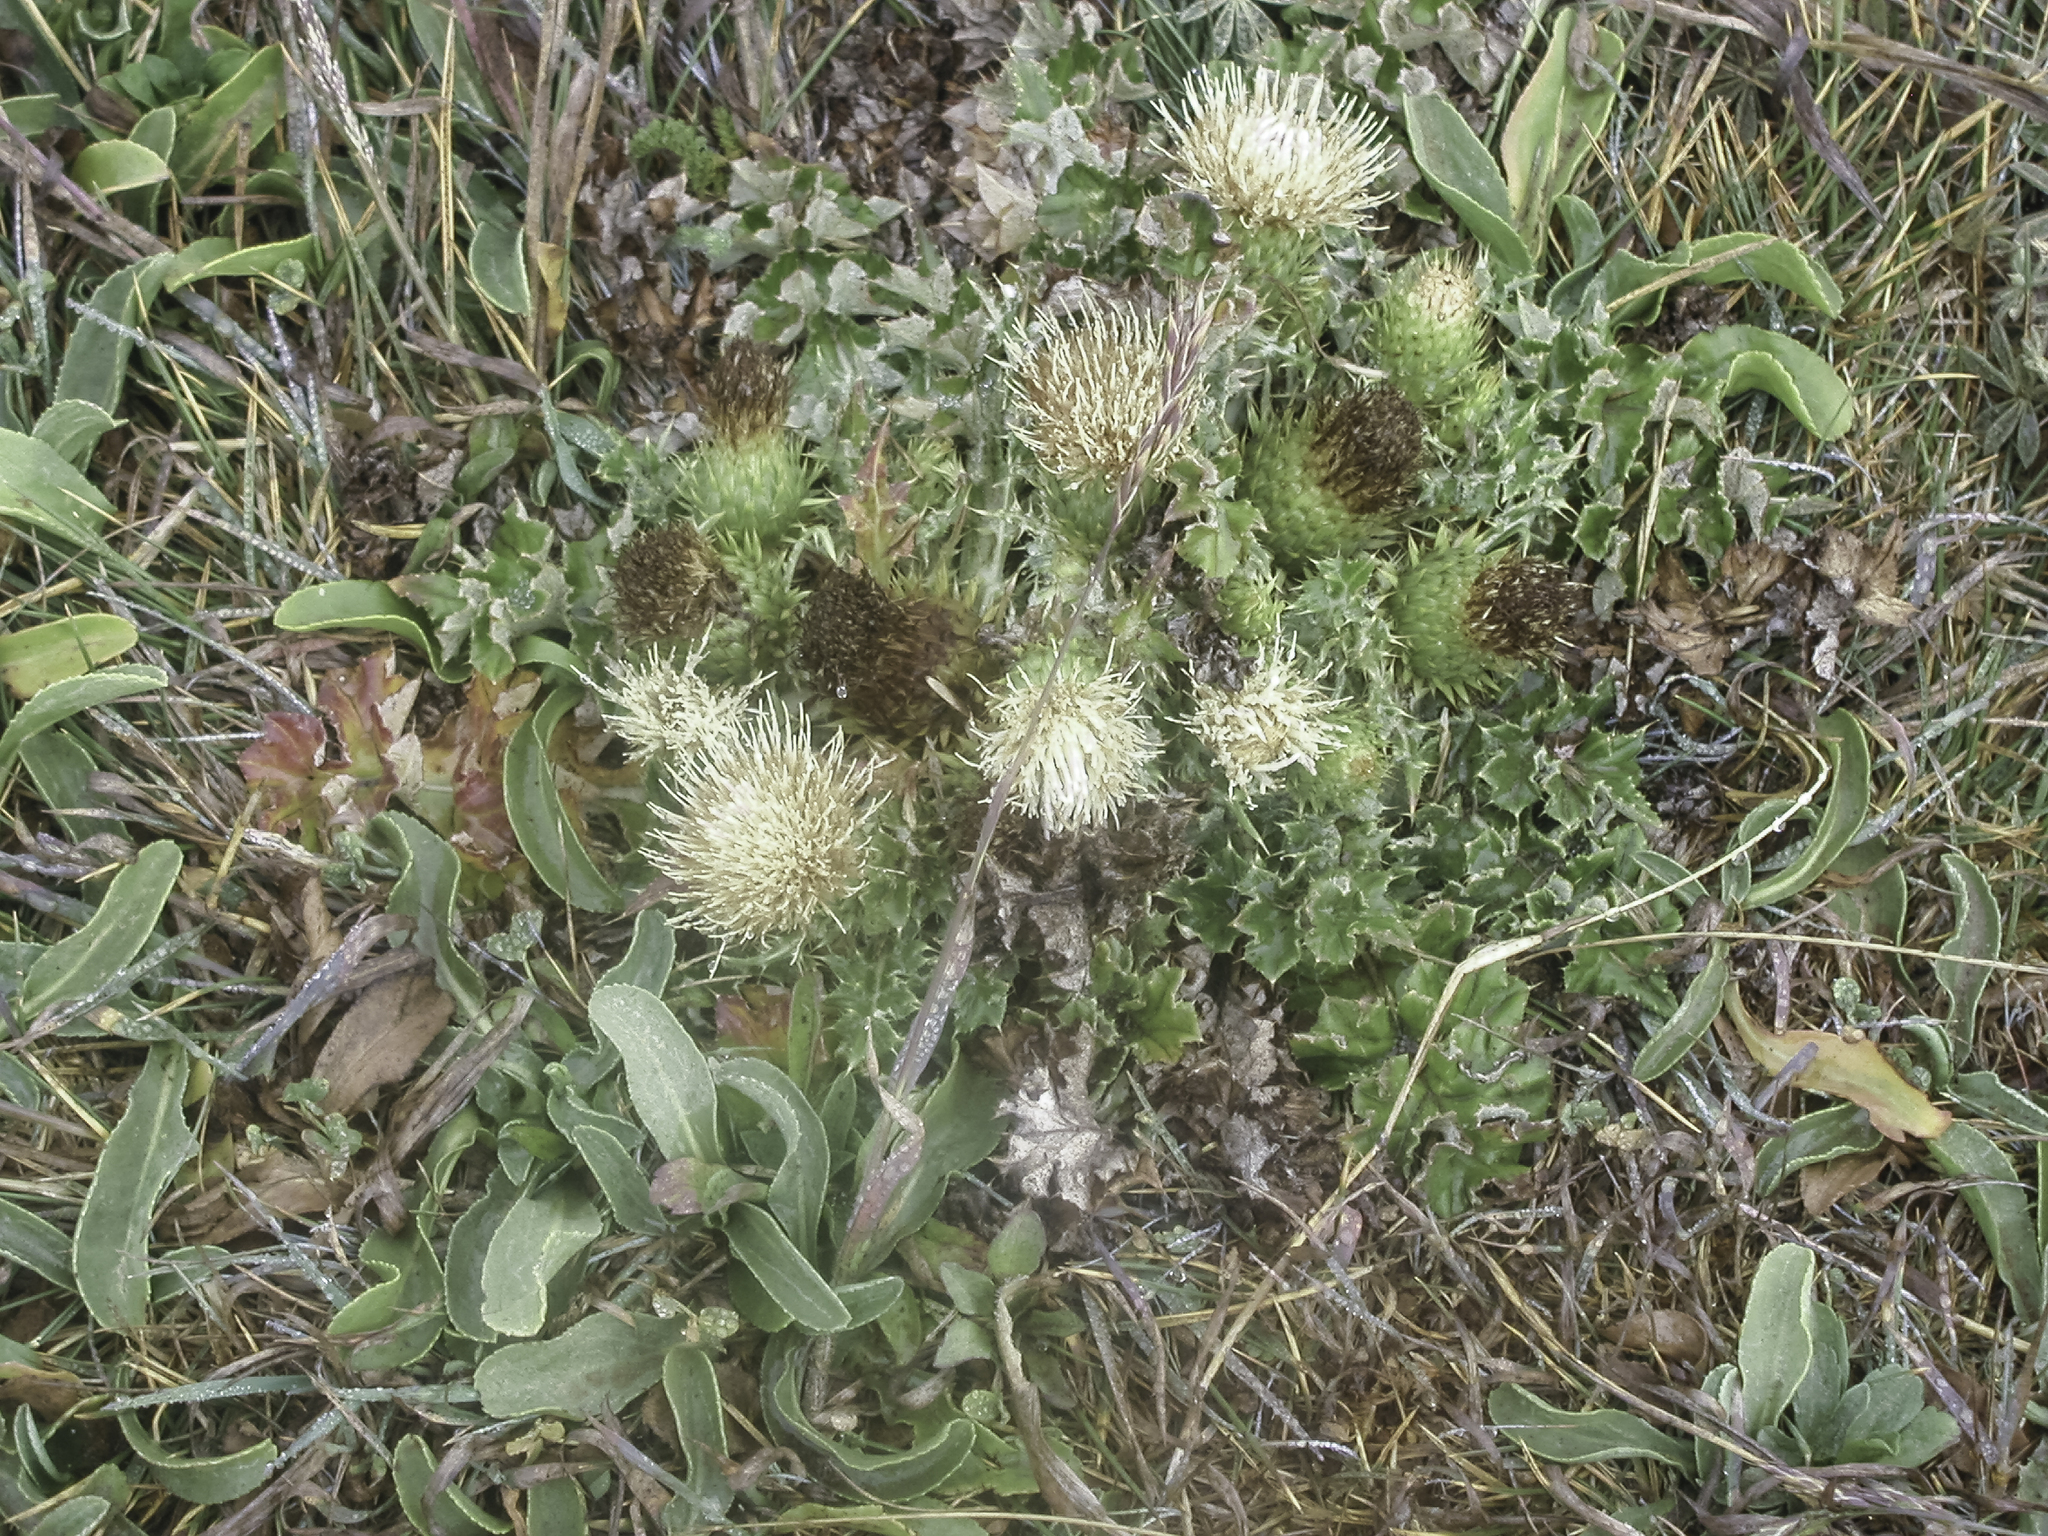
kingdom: Plantae
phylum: Tracheophyta
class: Magnoliopsida
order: Asterales
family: Asteraceae
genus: Cirsium
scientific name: Cirsium quercetorum
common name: Alameda county thistle
